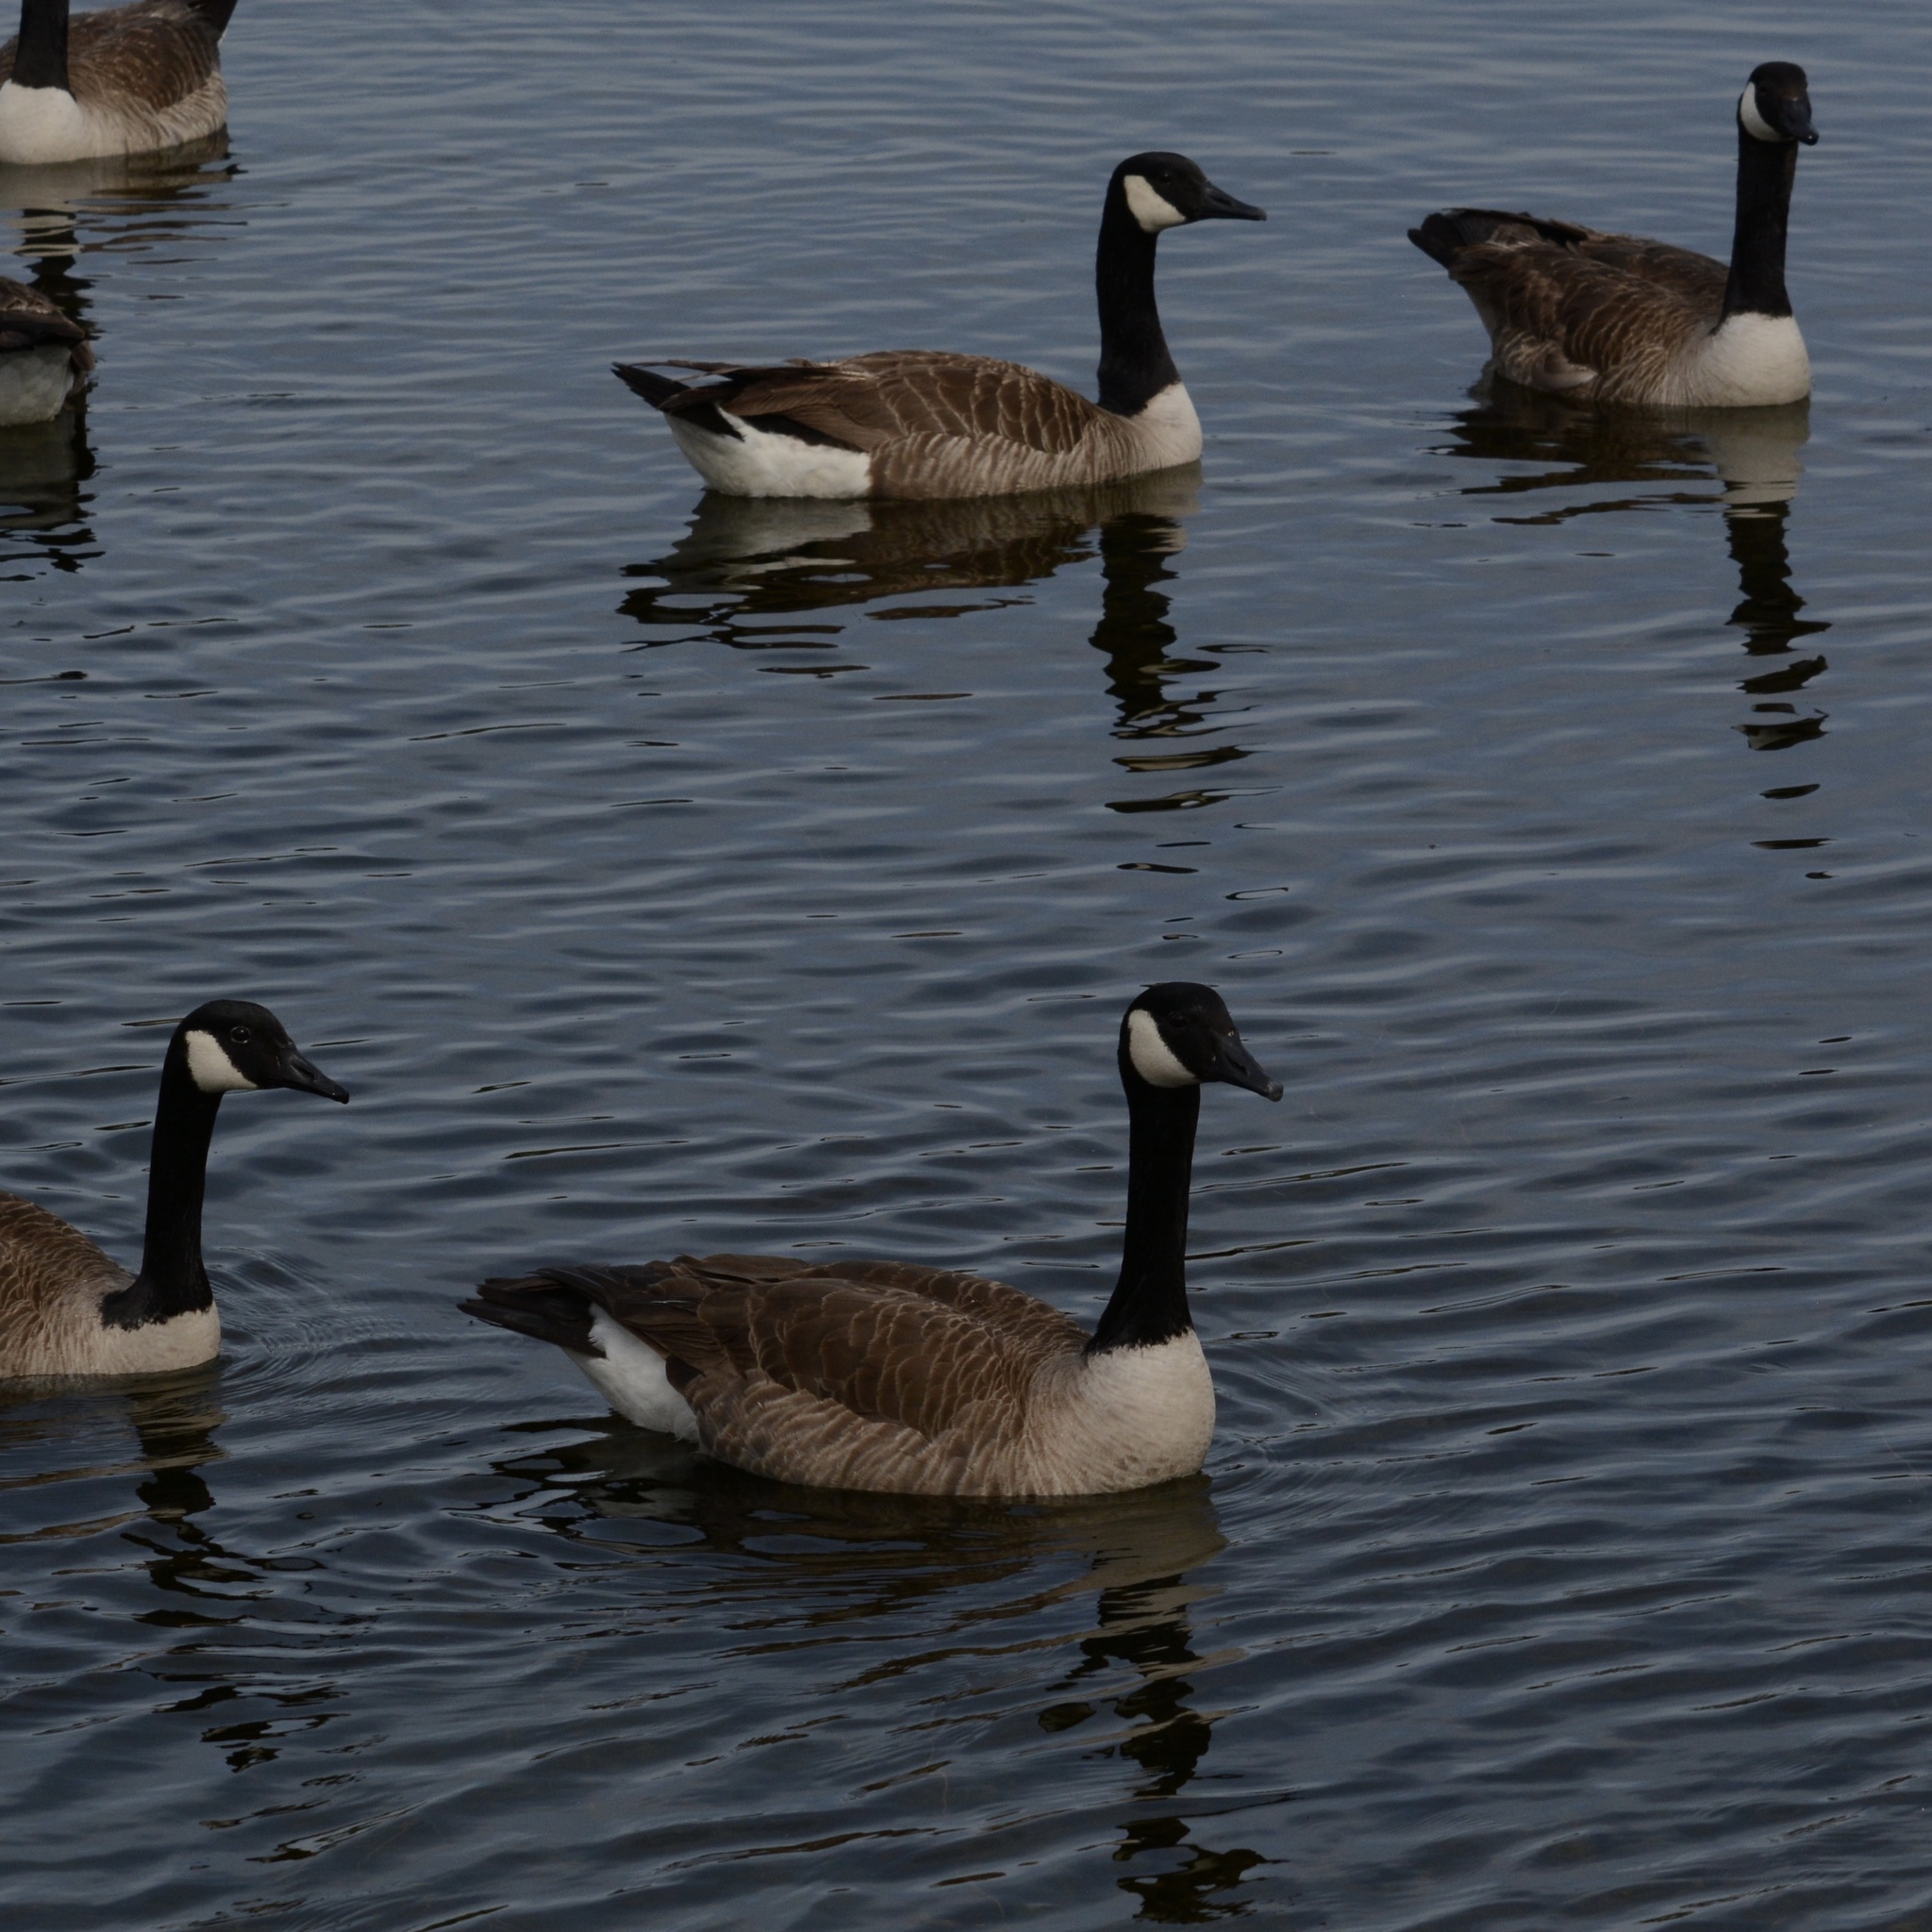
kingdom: Animalia
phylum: Chordata
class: Aves
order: Anseriformes
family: Anatidae
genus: Branta
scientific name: Branta canadensis
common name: Canada goose
